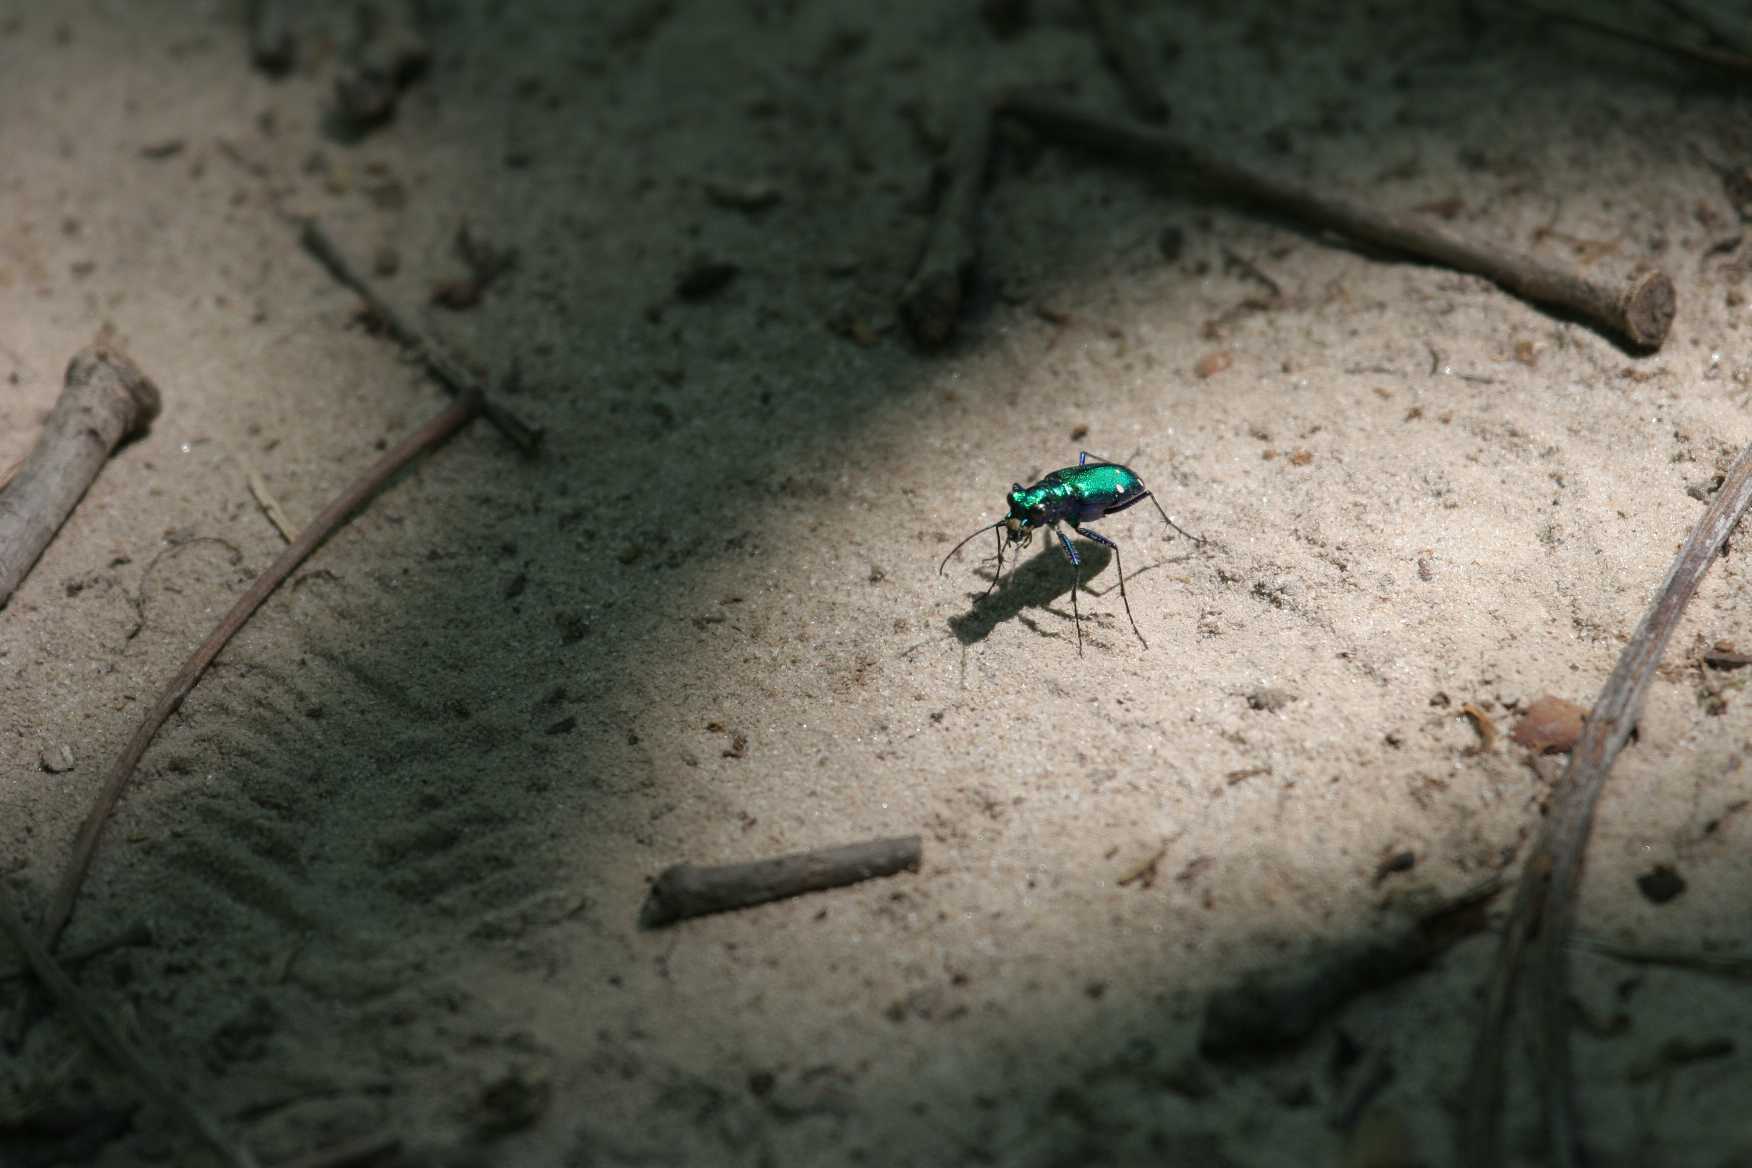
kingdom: Animalia
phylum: Arthropoda
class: Insecta
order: Coleoptera
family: Carabidae
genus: Cicindela
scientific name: Cicindela sexguttata
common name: Six-spotted tiger beetle
